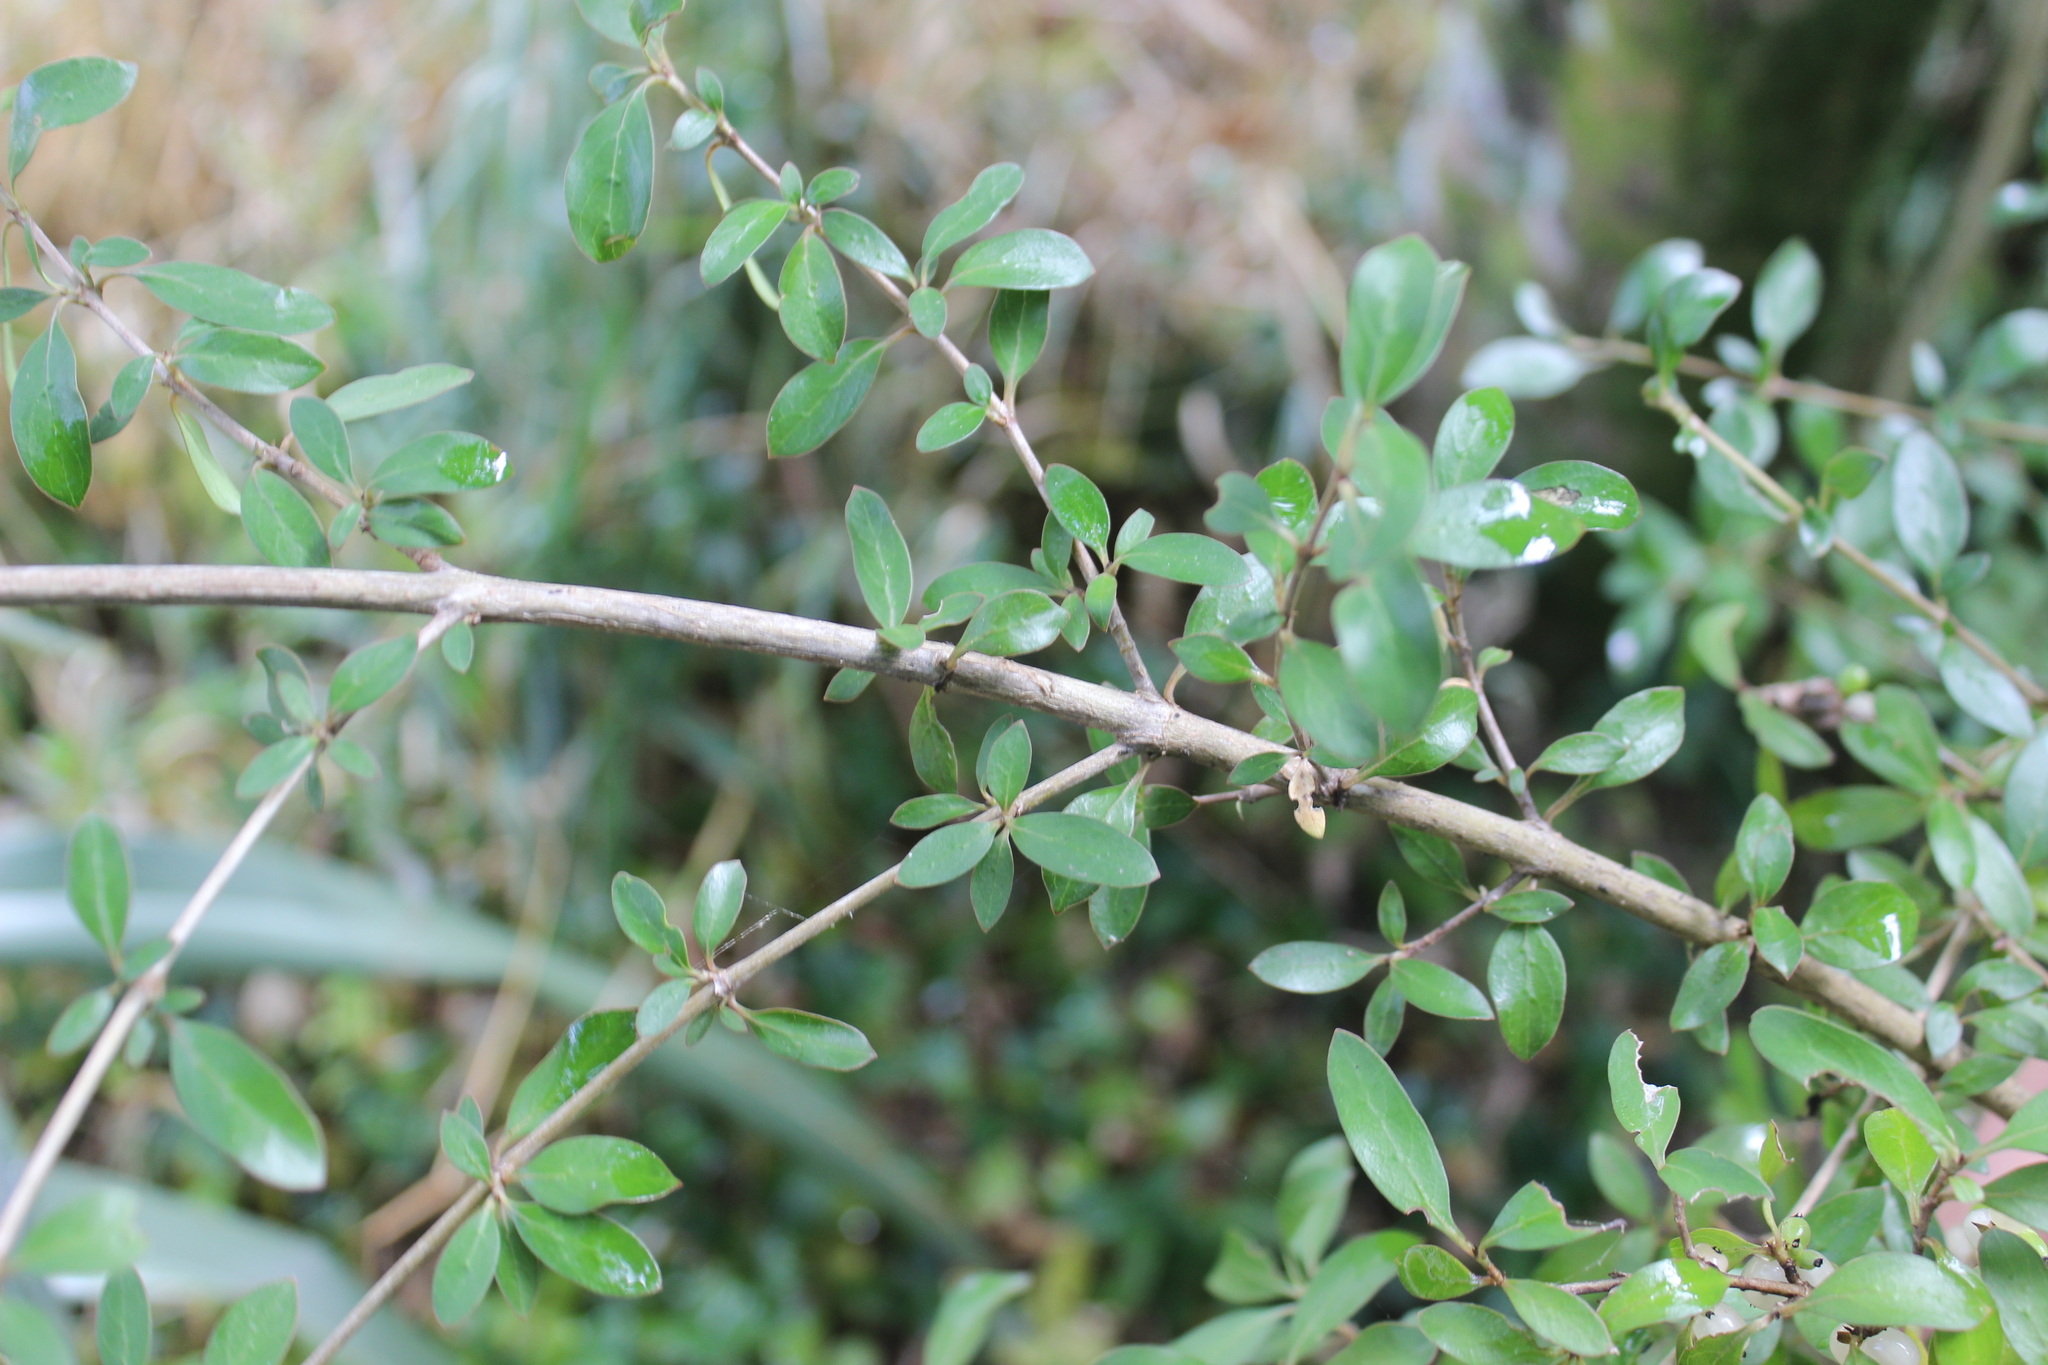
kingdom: Plantae
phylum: Tracheophyta
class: Magnoliopsida
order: Gentianales
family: Rubiaceae
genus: Coprosma
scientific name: Coprosma cunninghamii
